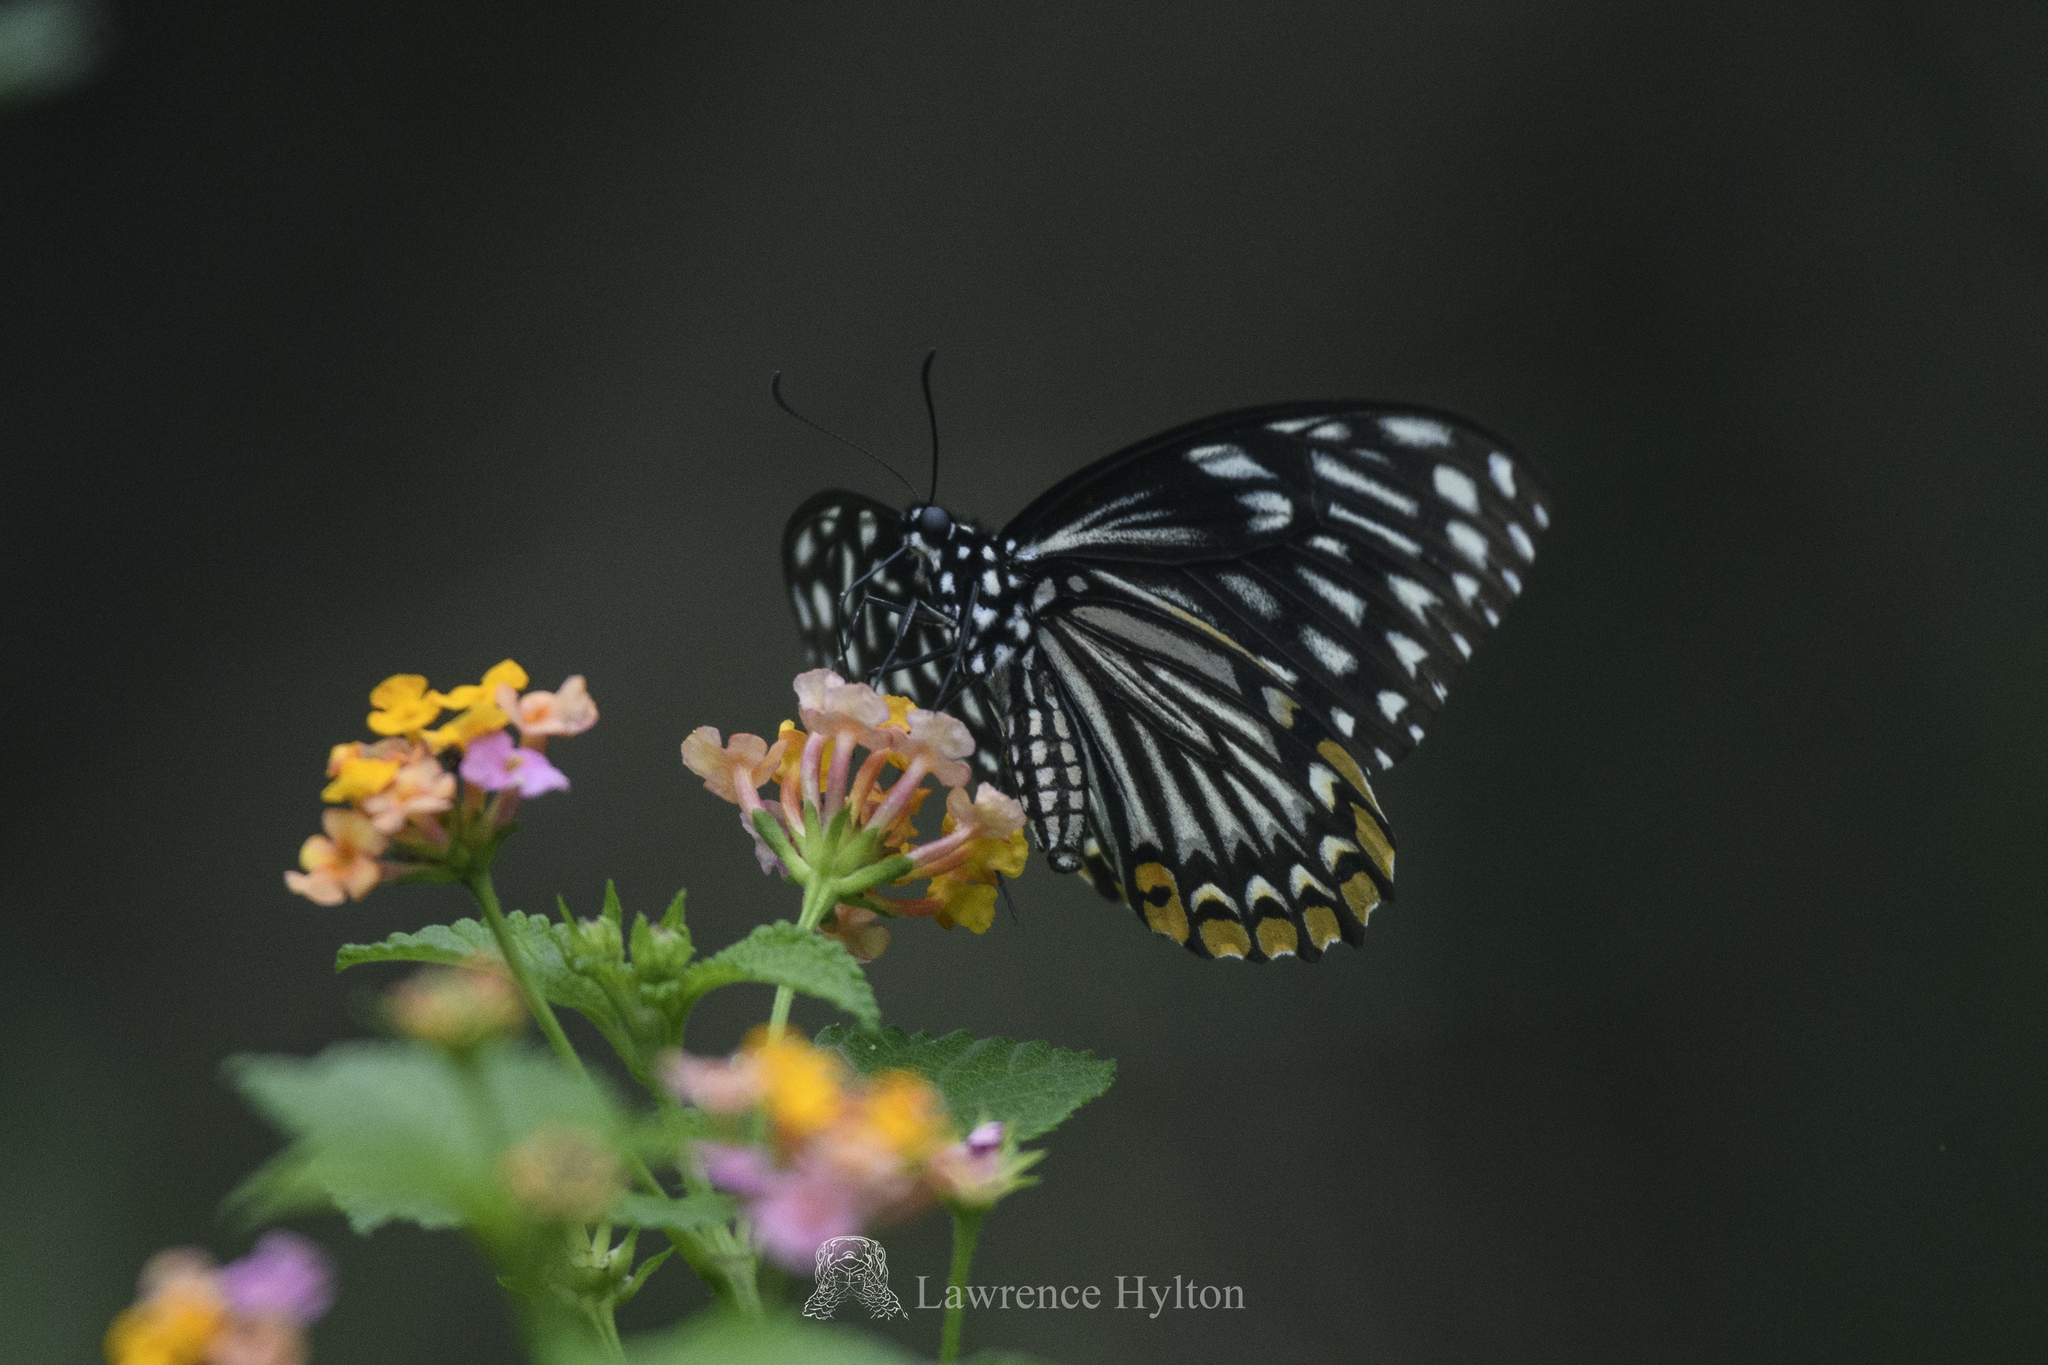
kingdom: Animalia
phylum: Arthropoda
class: Insecta
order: Lepidoptera
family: Papilionidae
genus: Chilasa
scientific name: Chilasa clytia
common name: Common mime
